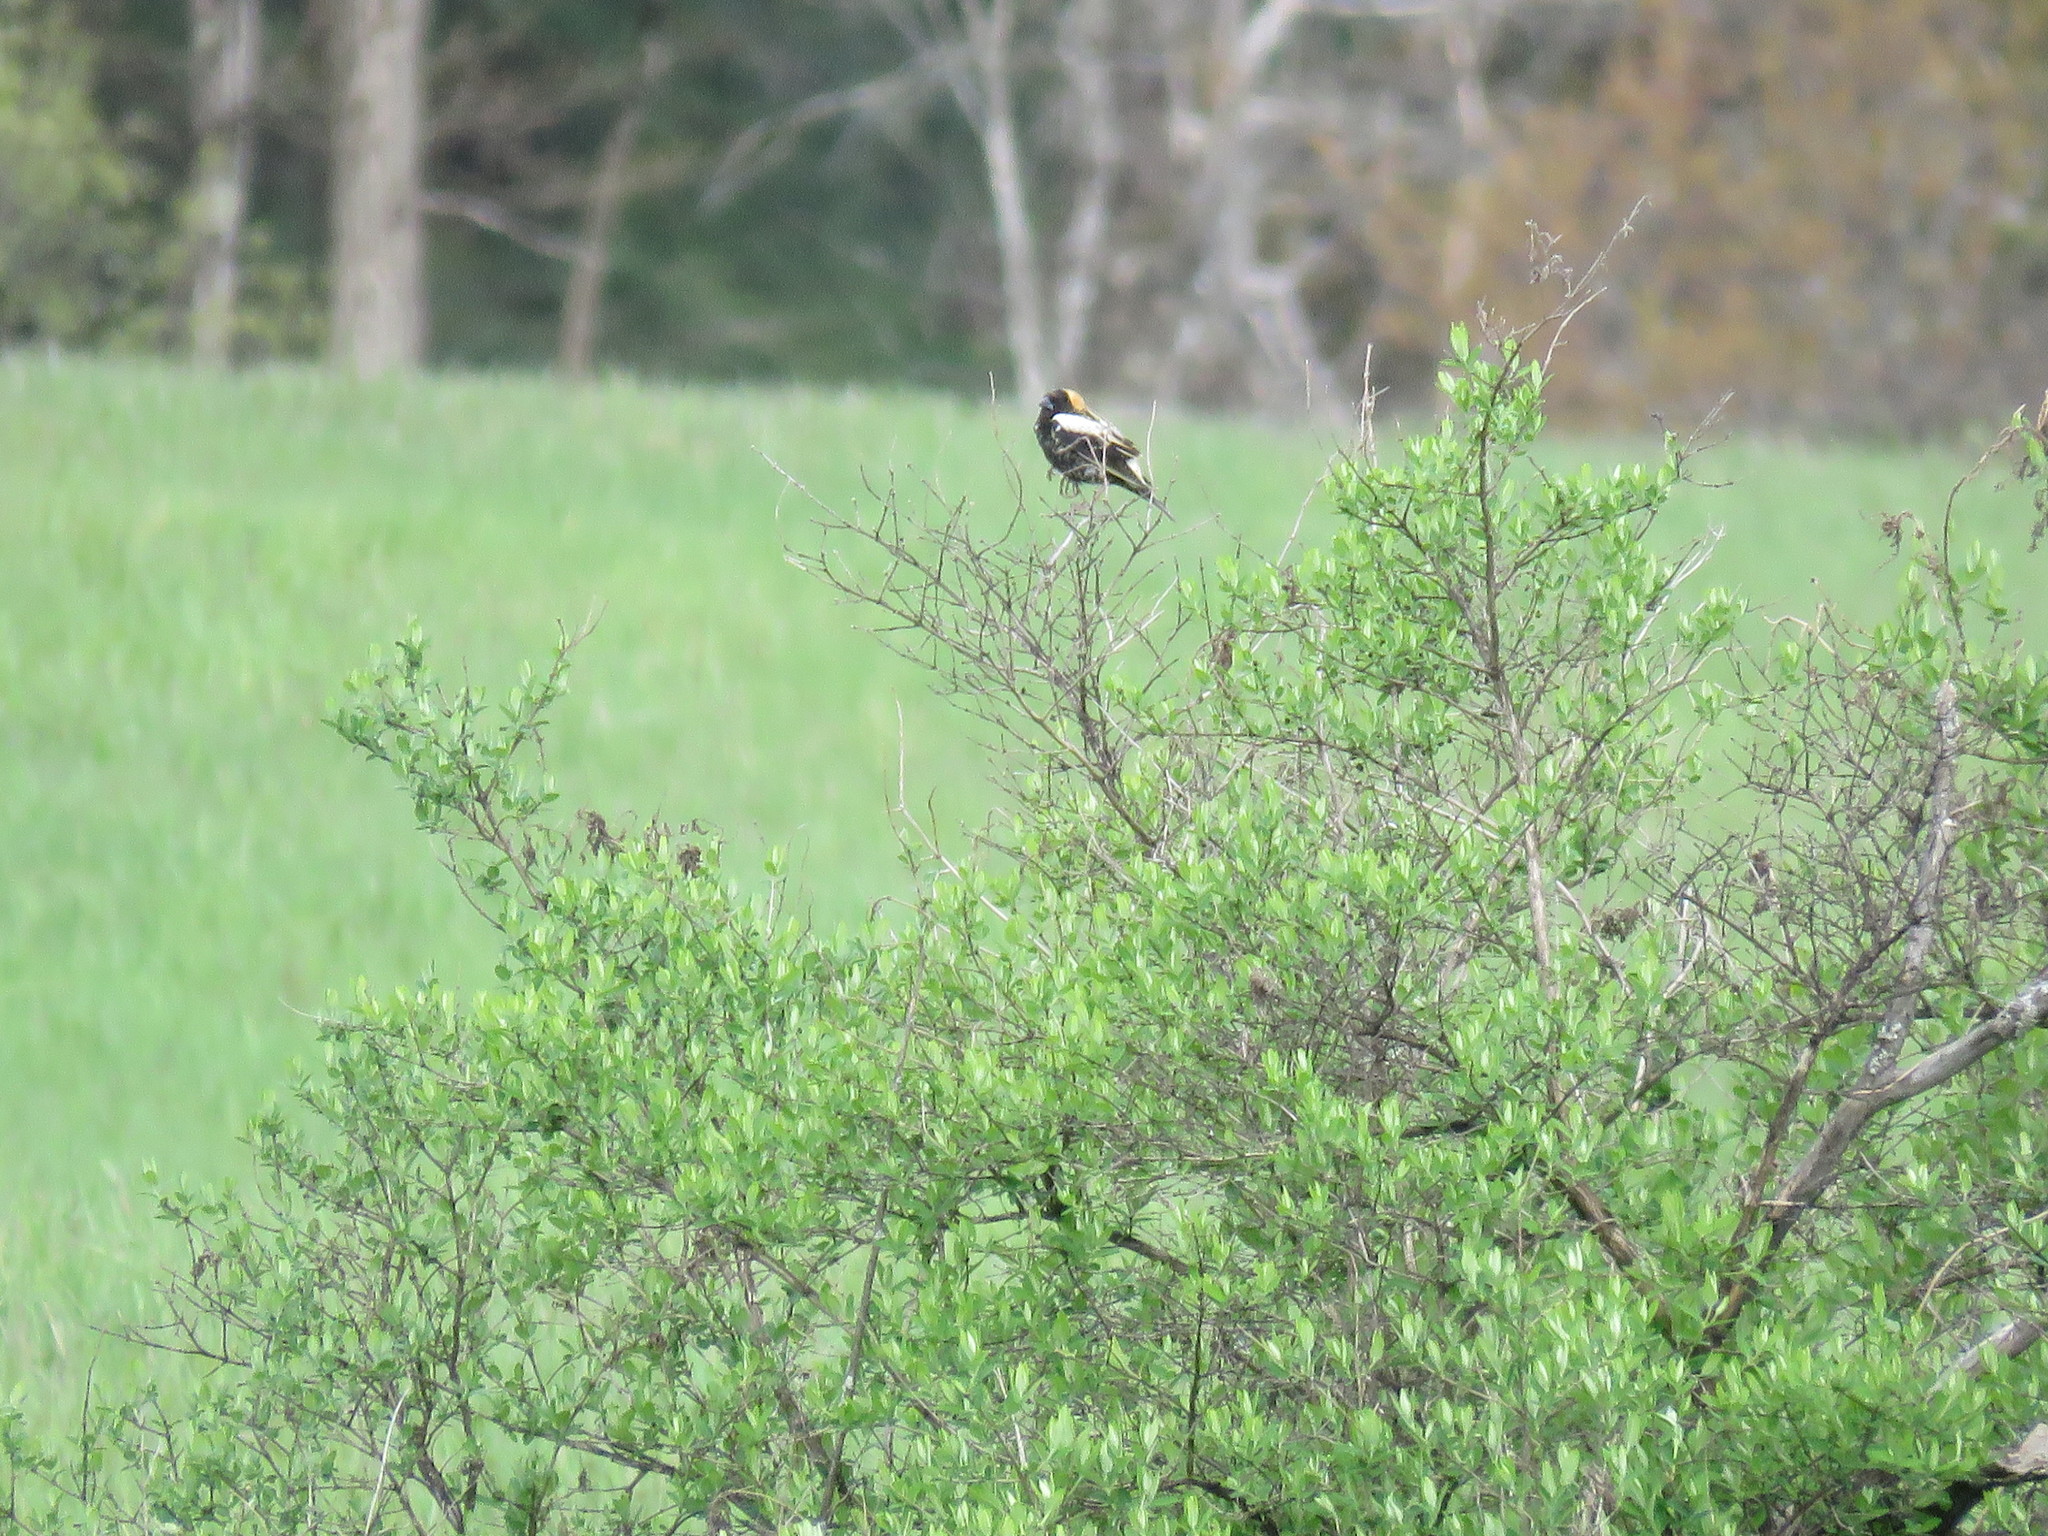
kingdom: Animalia
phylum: Chordata
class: Aves
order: Passeriformes
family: Icteridae
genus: Dolichonyx
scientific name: Dolichonyx oryzivorus
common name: Bobolink
